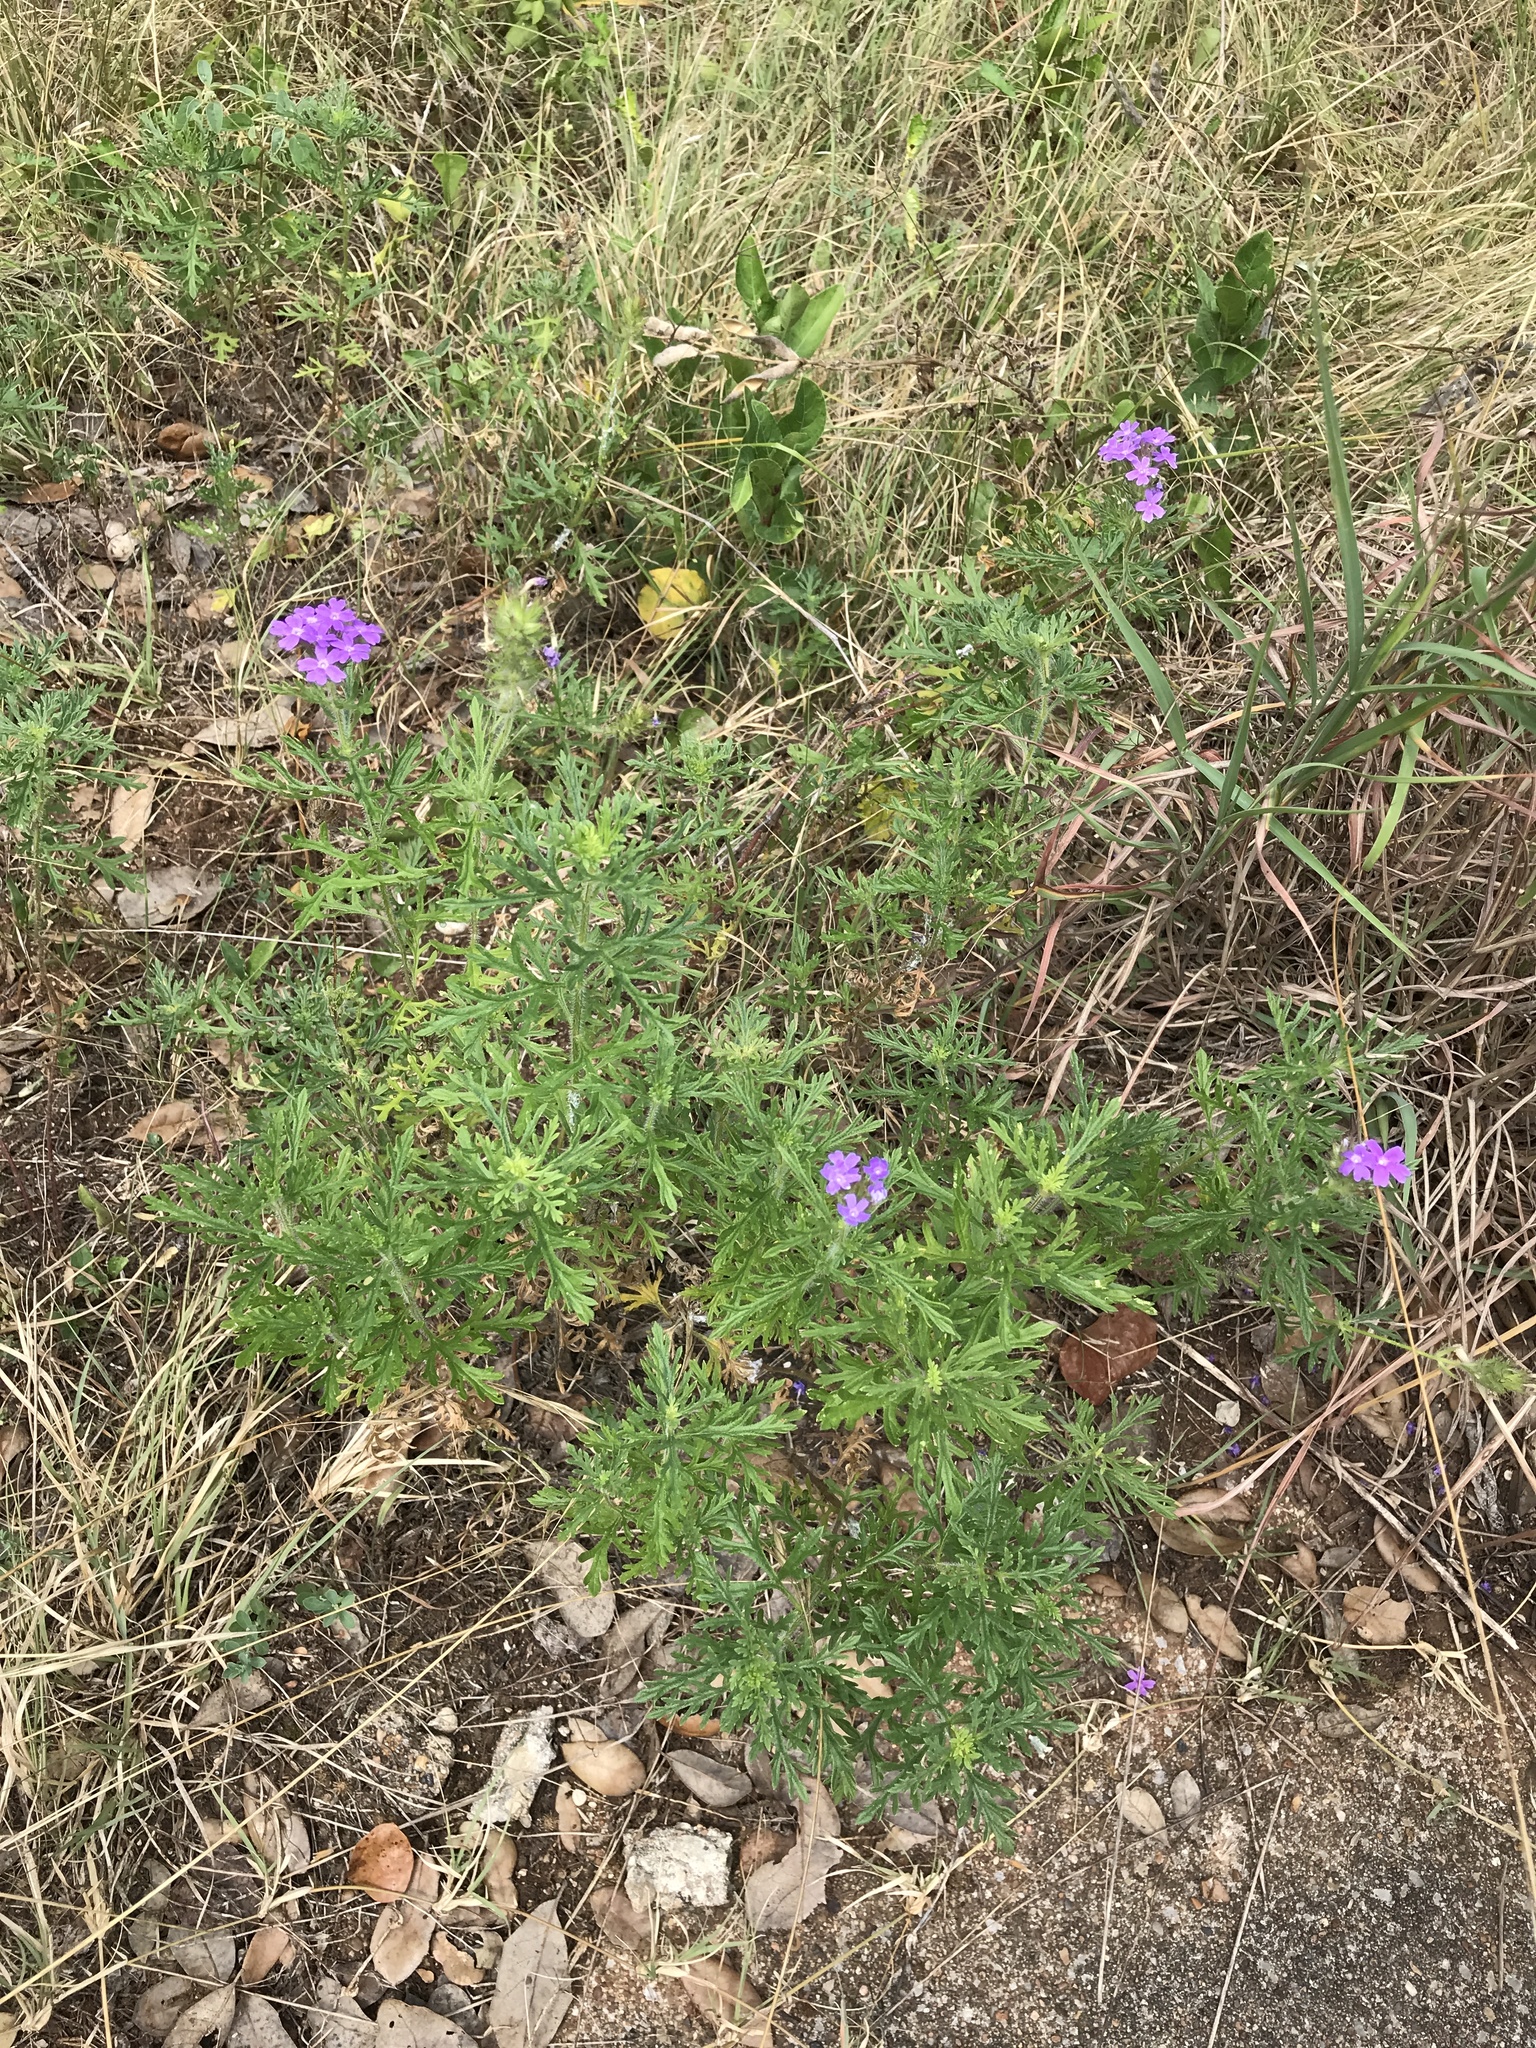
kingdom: Plantae
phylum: Tracheophyta
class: Magnoliopsida
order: Lamiales
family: Verbenaceae
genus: Verbena
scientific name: Verbena bipinnatifida
